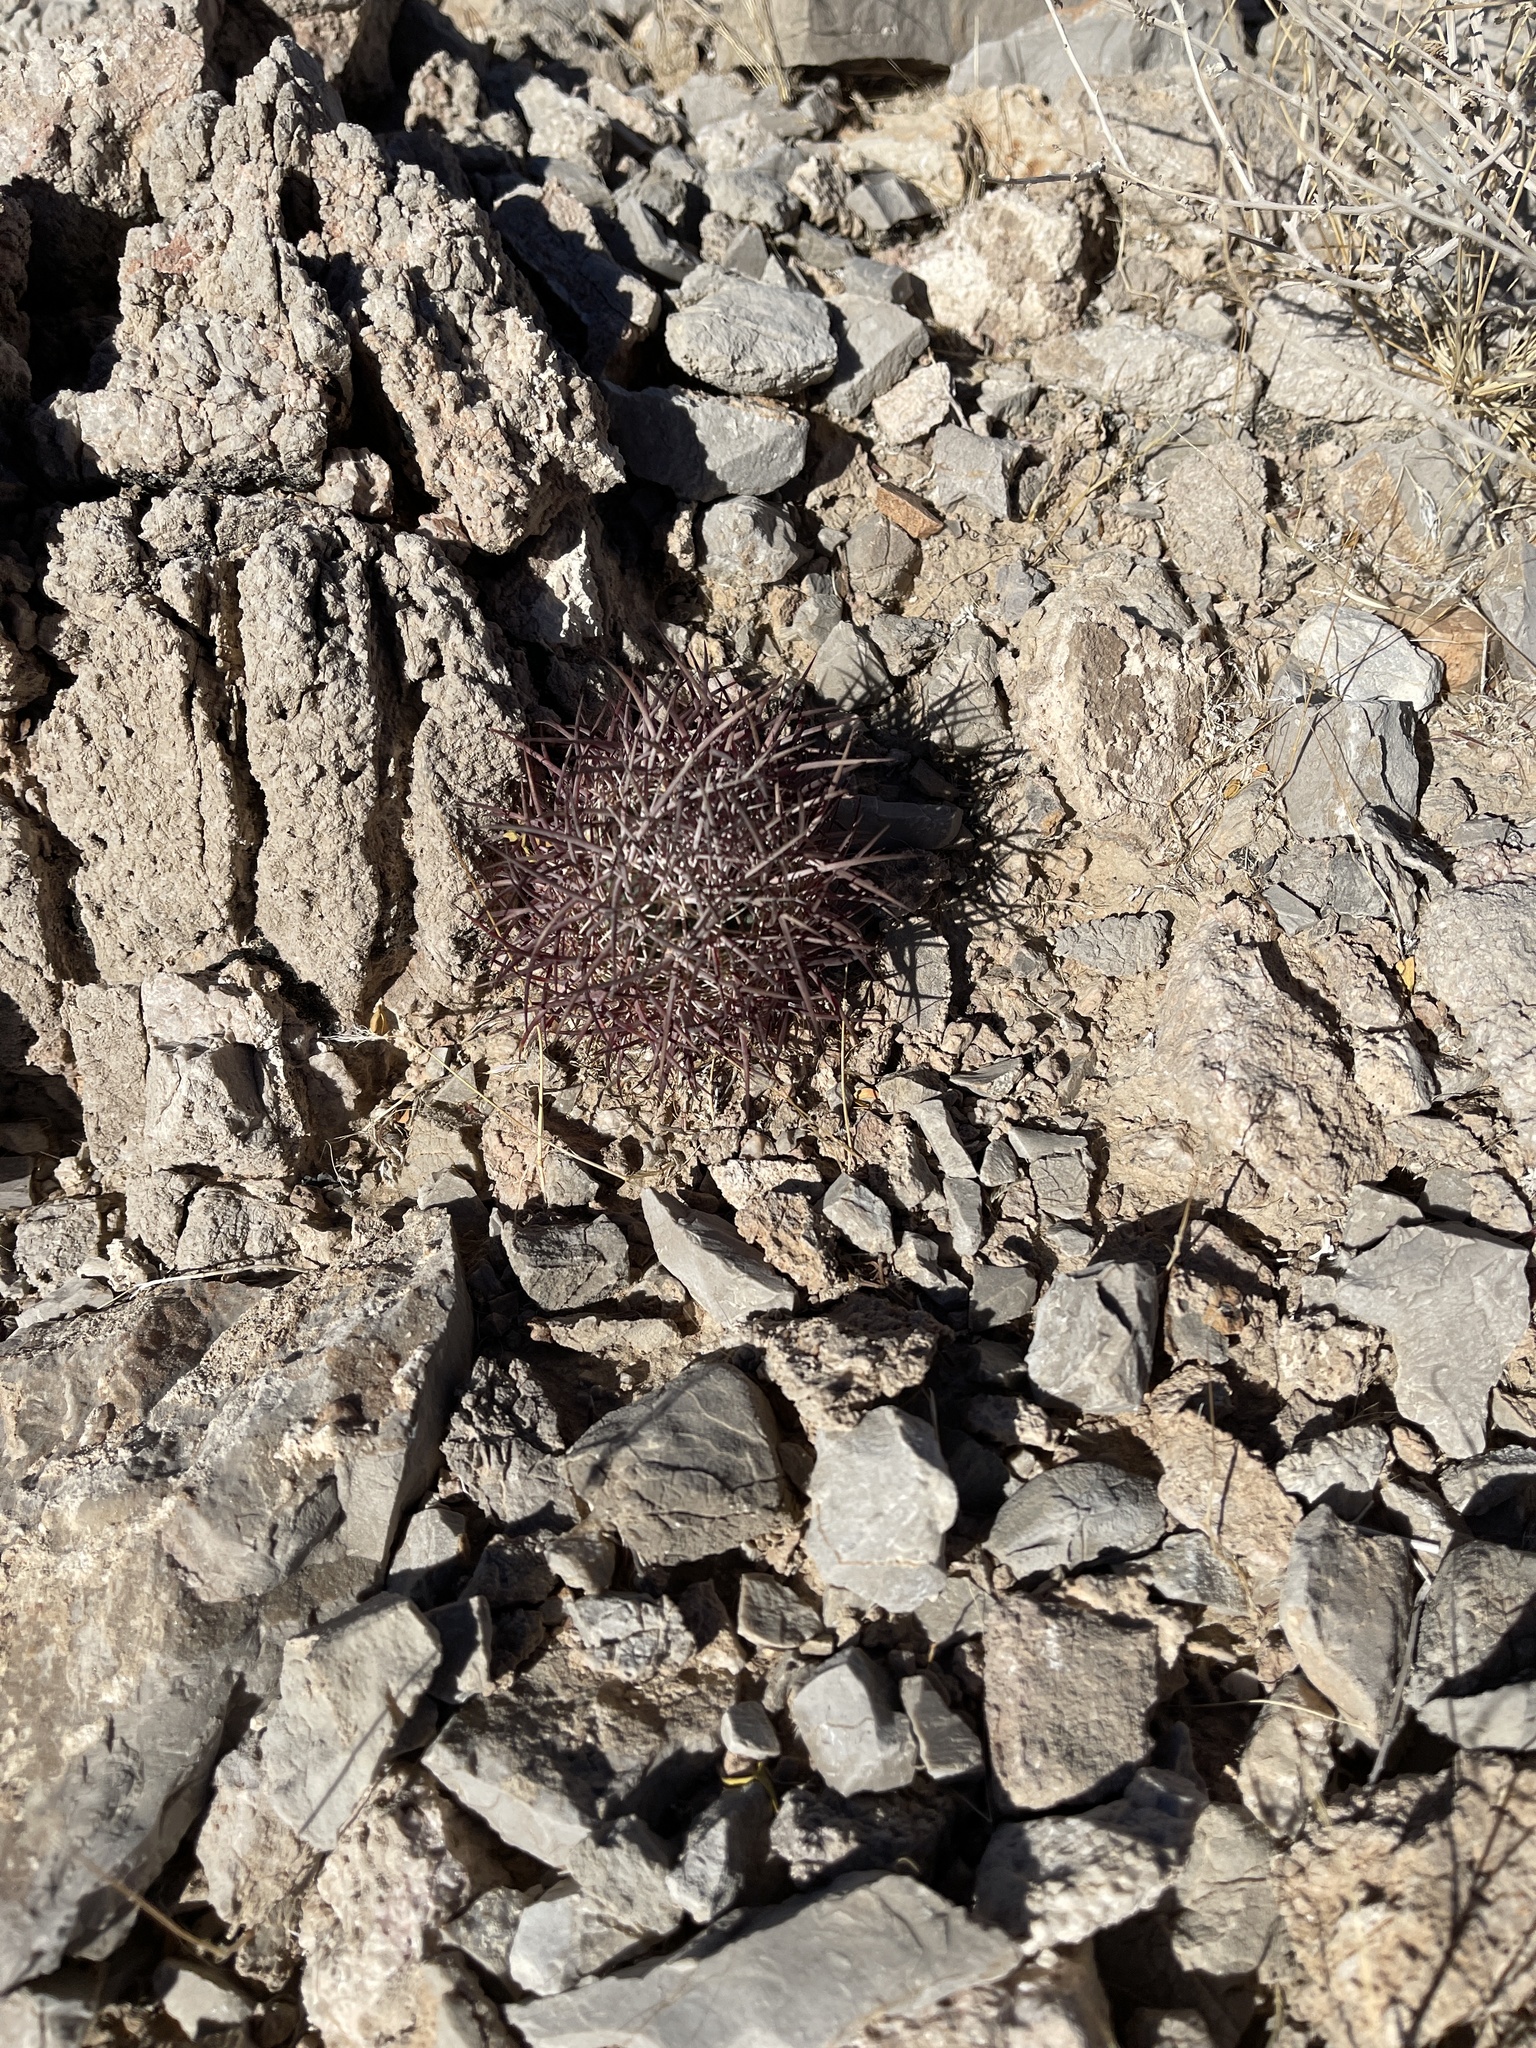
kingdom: Plantae
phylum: Tracheophyta
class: Magnoliopsida
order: Caryophyllales
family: Cactaceae
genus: Sclerocactus
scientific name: Sclerocactus johnsonii
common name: Eight-spine fishhook cactus
